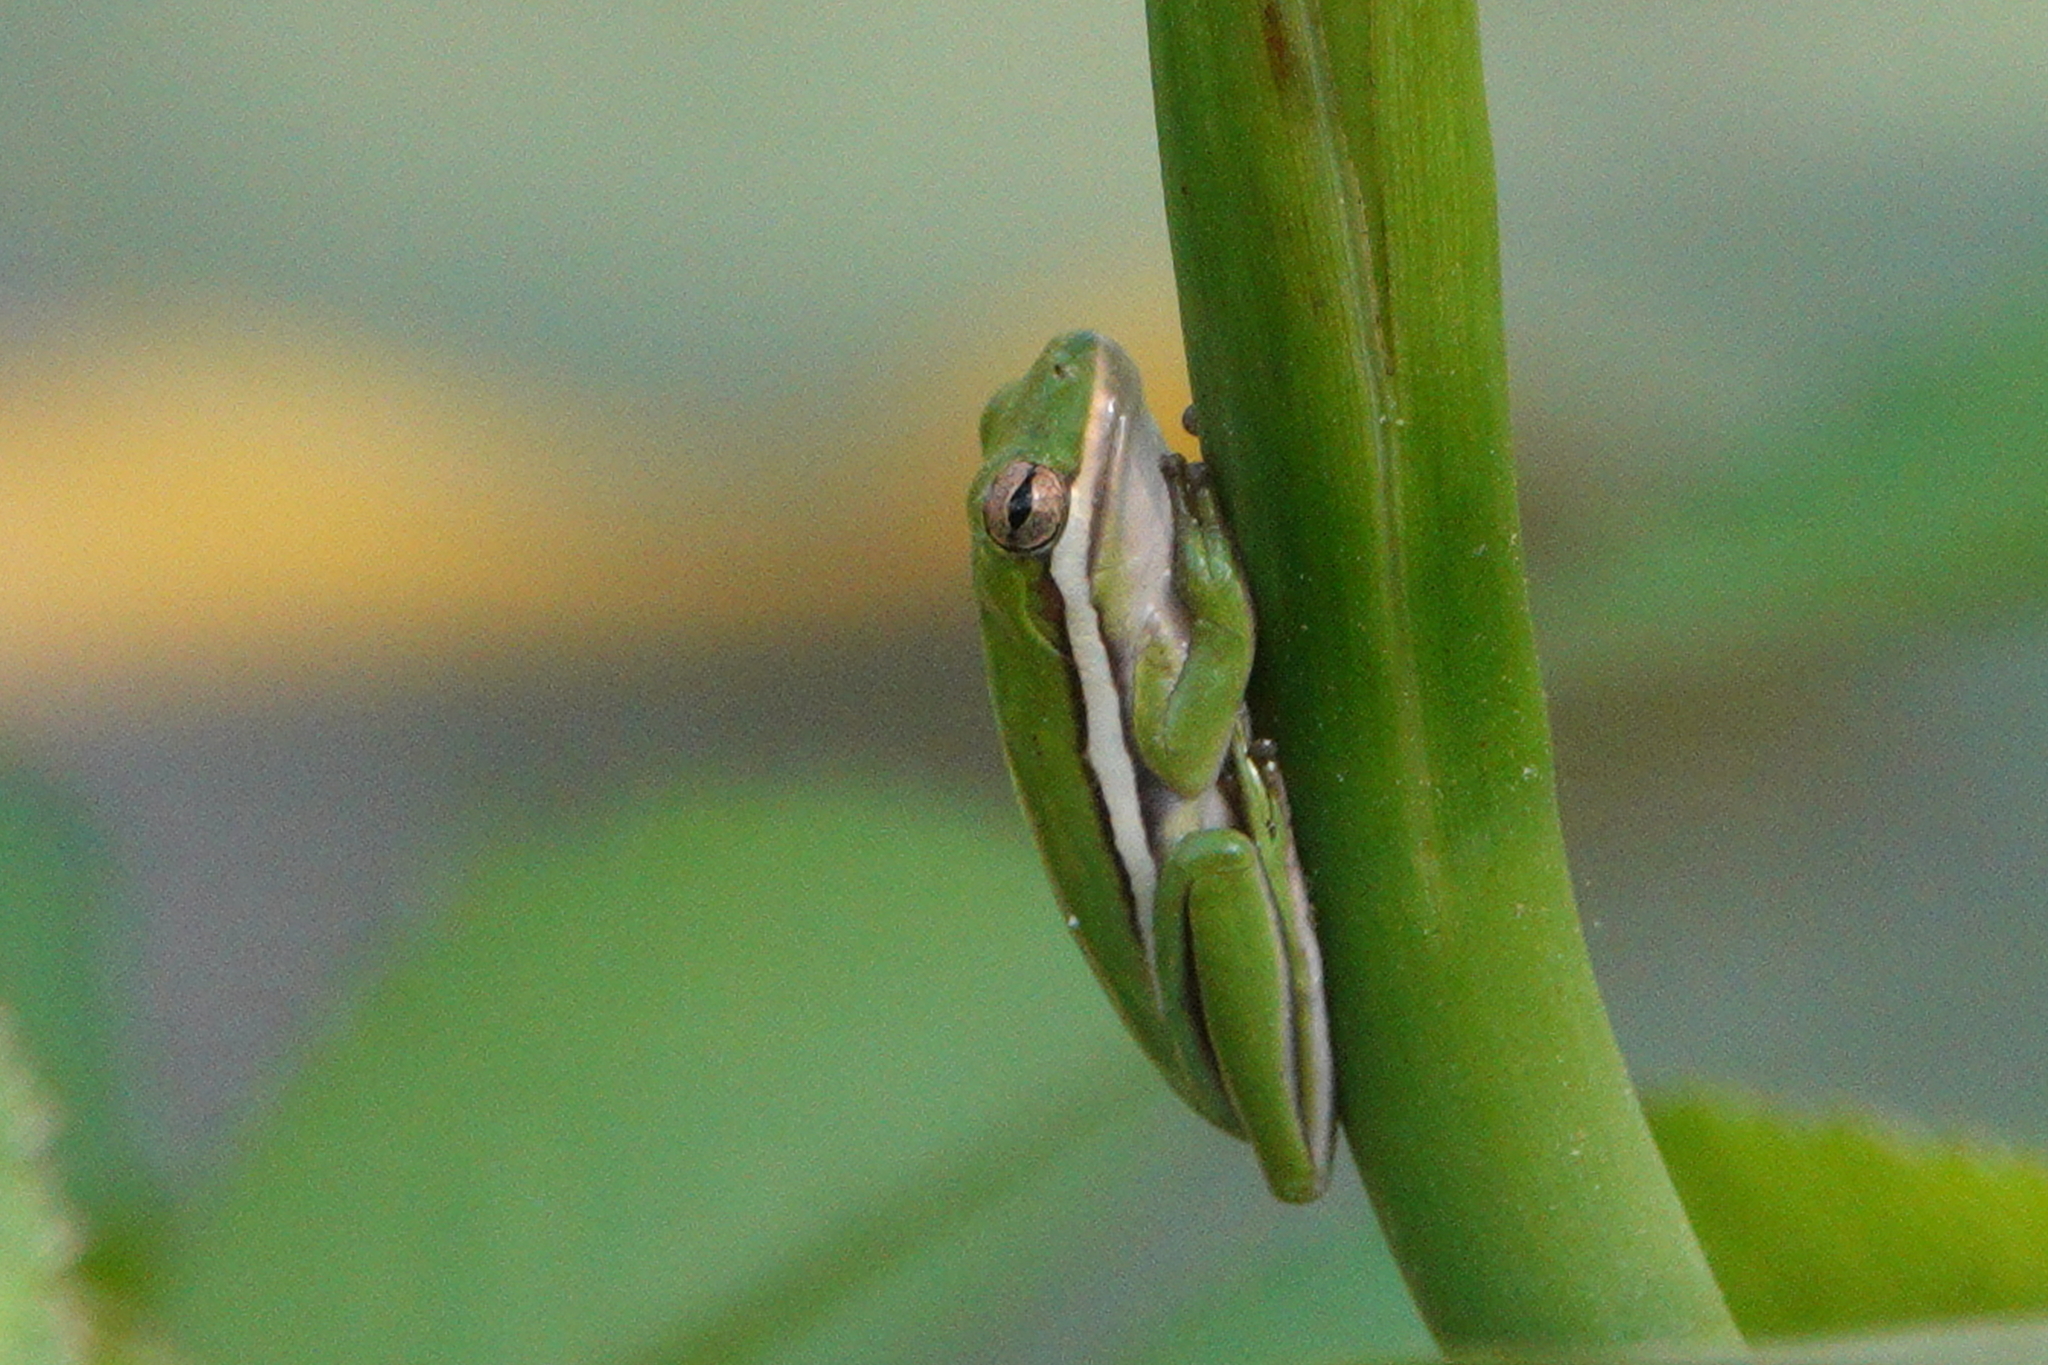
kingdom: Animalia
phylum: Chordata
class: Amphibia
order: Anura
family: Hylidae
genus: Dryophytes
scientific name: Dryophytes cinereus
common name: Green treefrog
